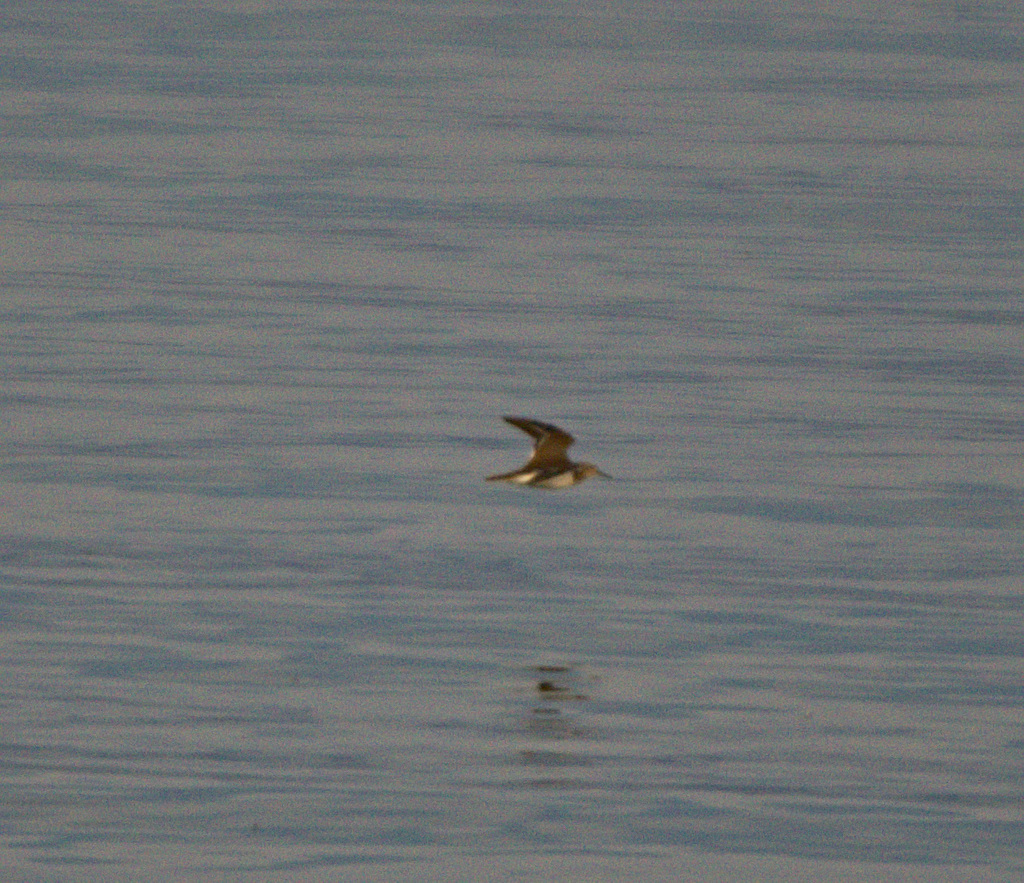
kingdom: Animalia
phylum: Chordata
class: Aves
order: Charadriiformes
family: Scolopacidae
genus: Actitis
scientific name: Actitis hypoleucos
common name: Common sandpiper
